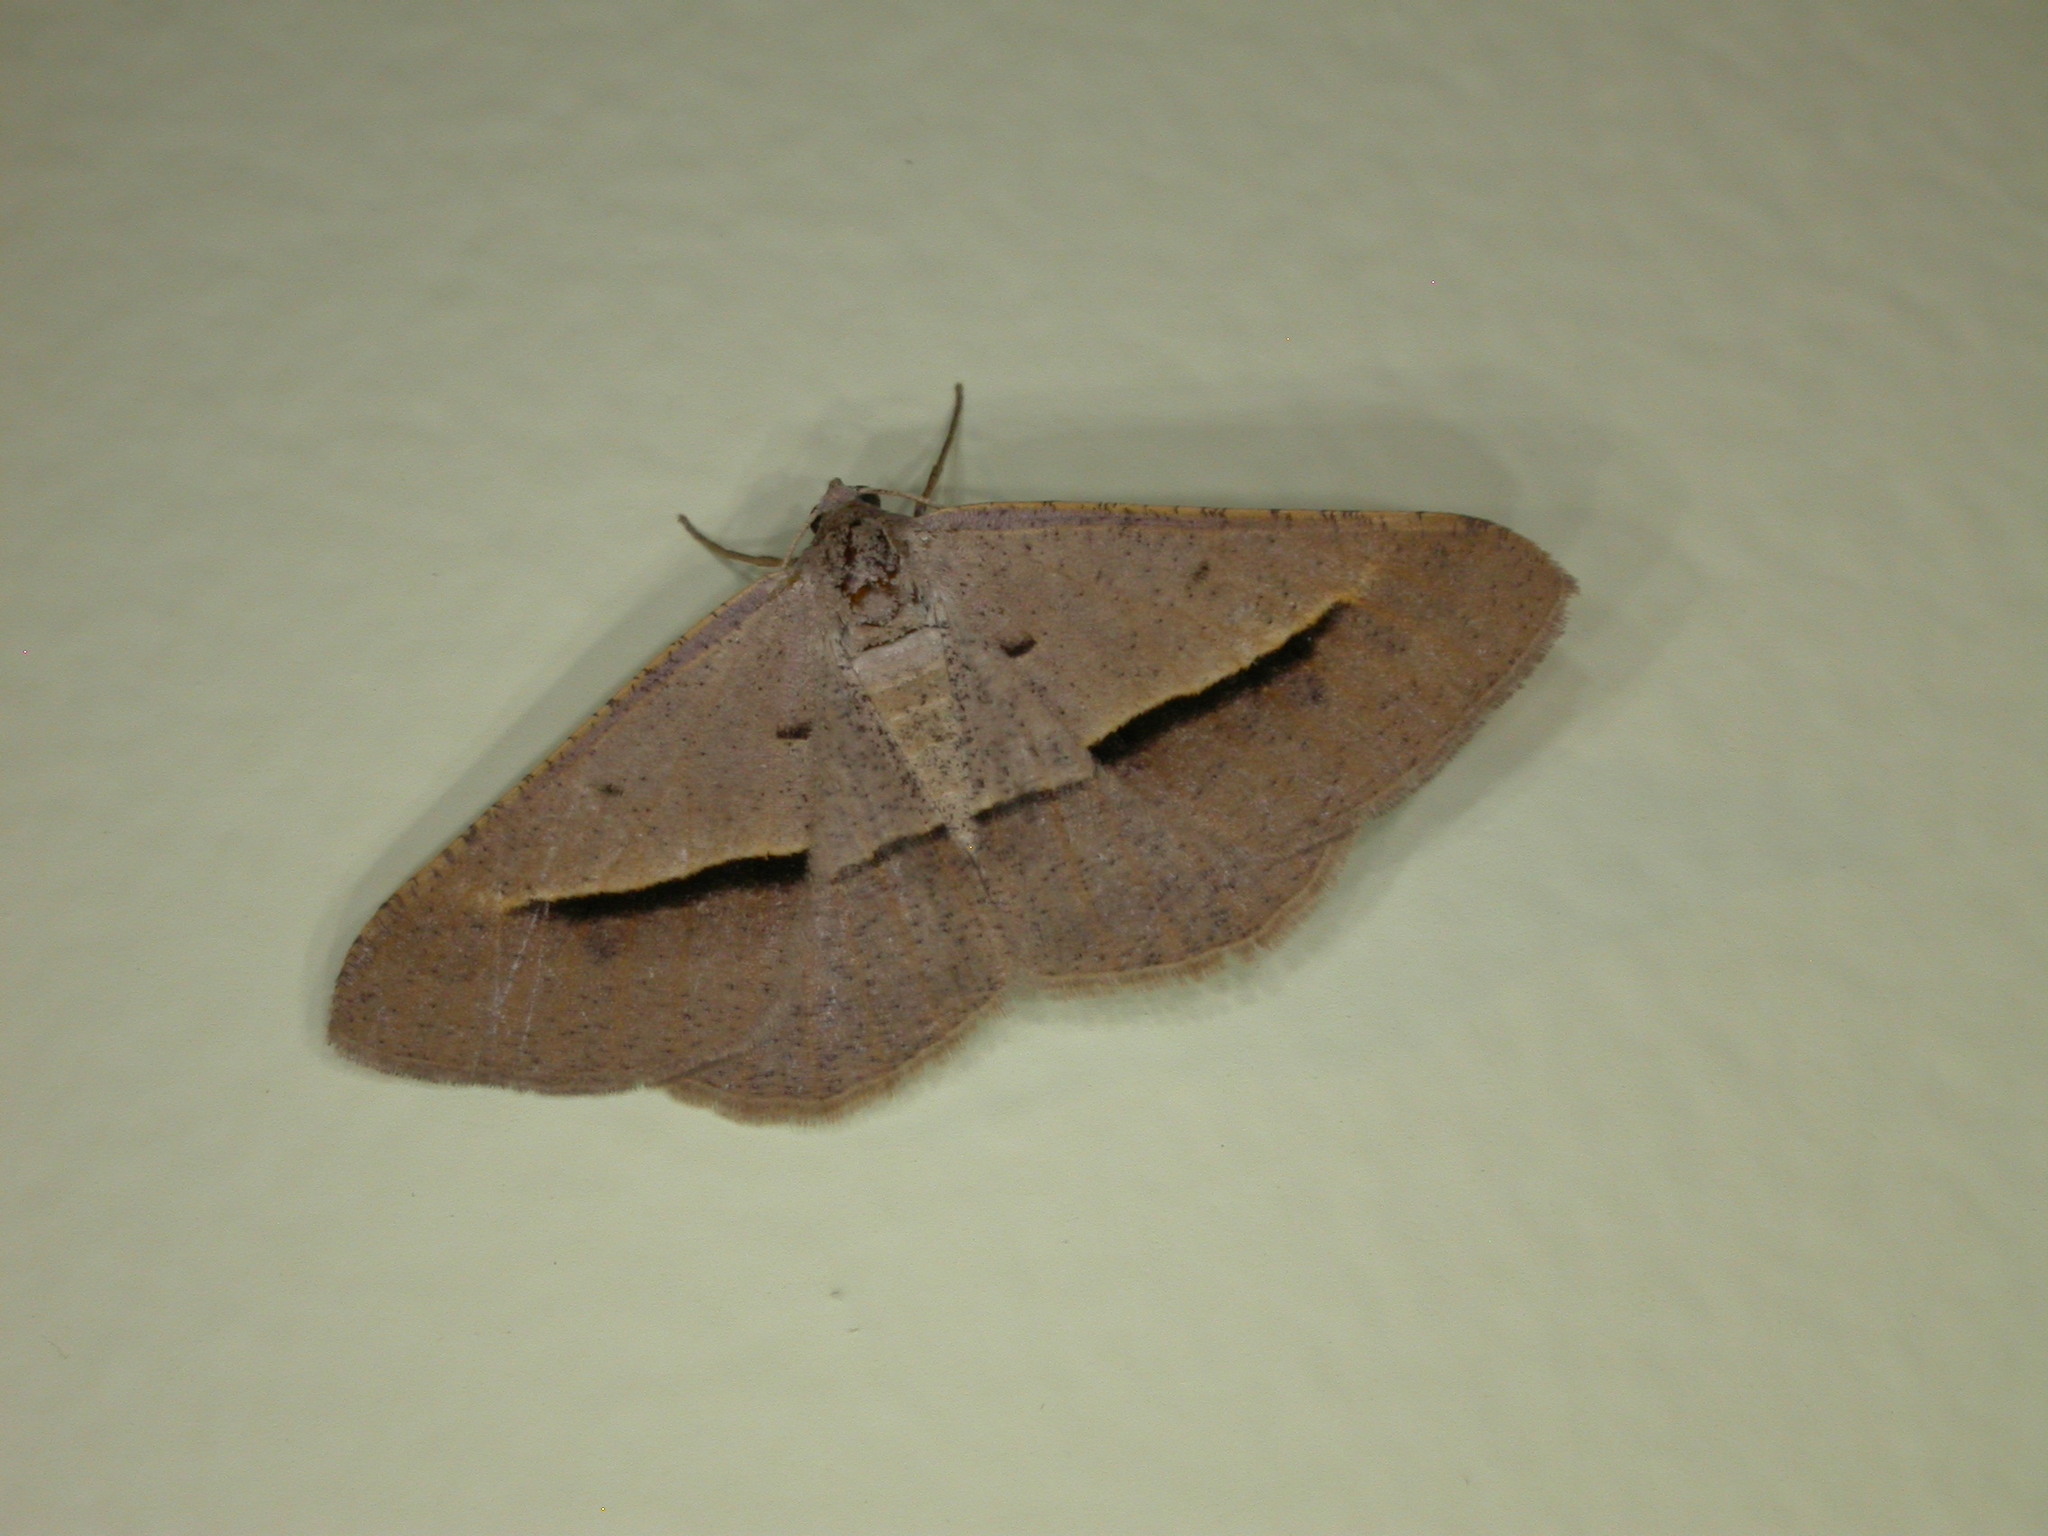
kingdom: Animalia
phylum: Arthropoda
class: Insecta
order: Lepidoptera
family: Geometridae
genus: Isturgia
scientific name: Isturgia
